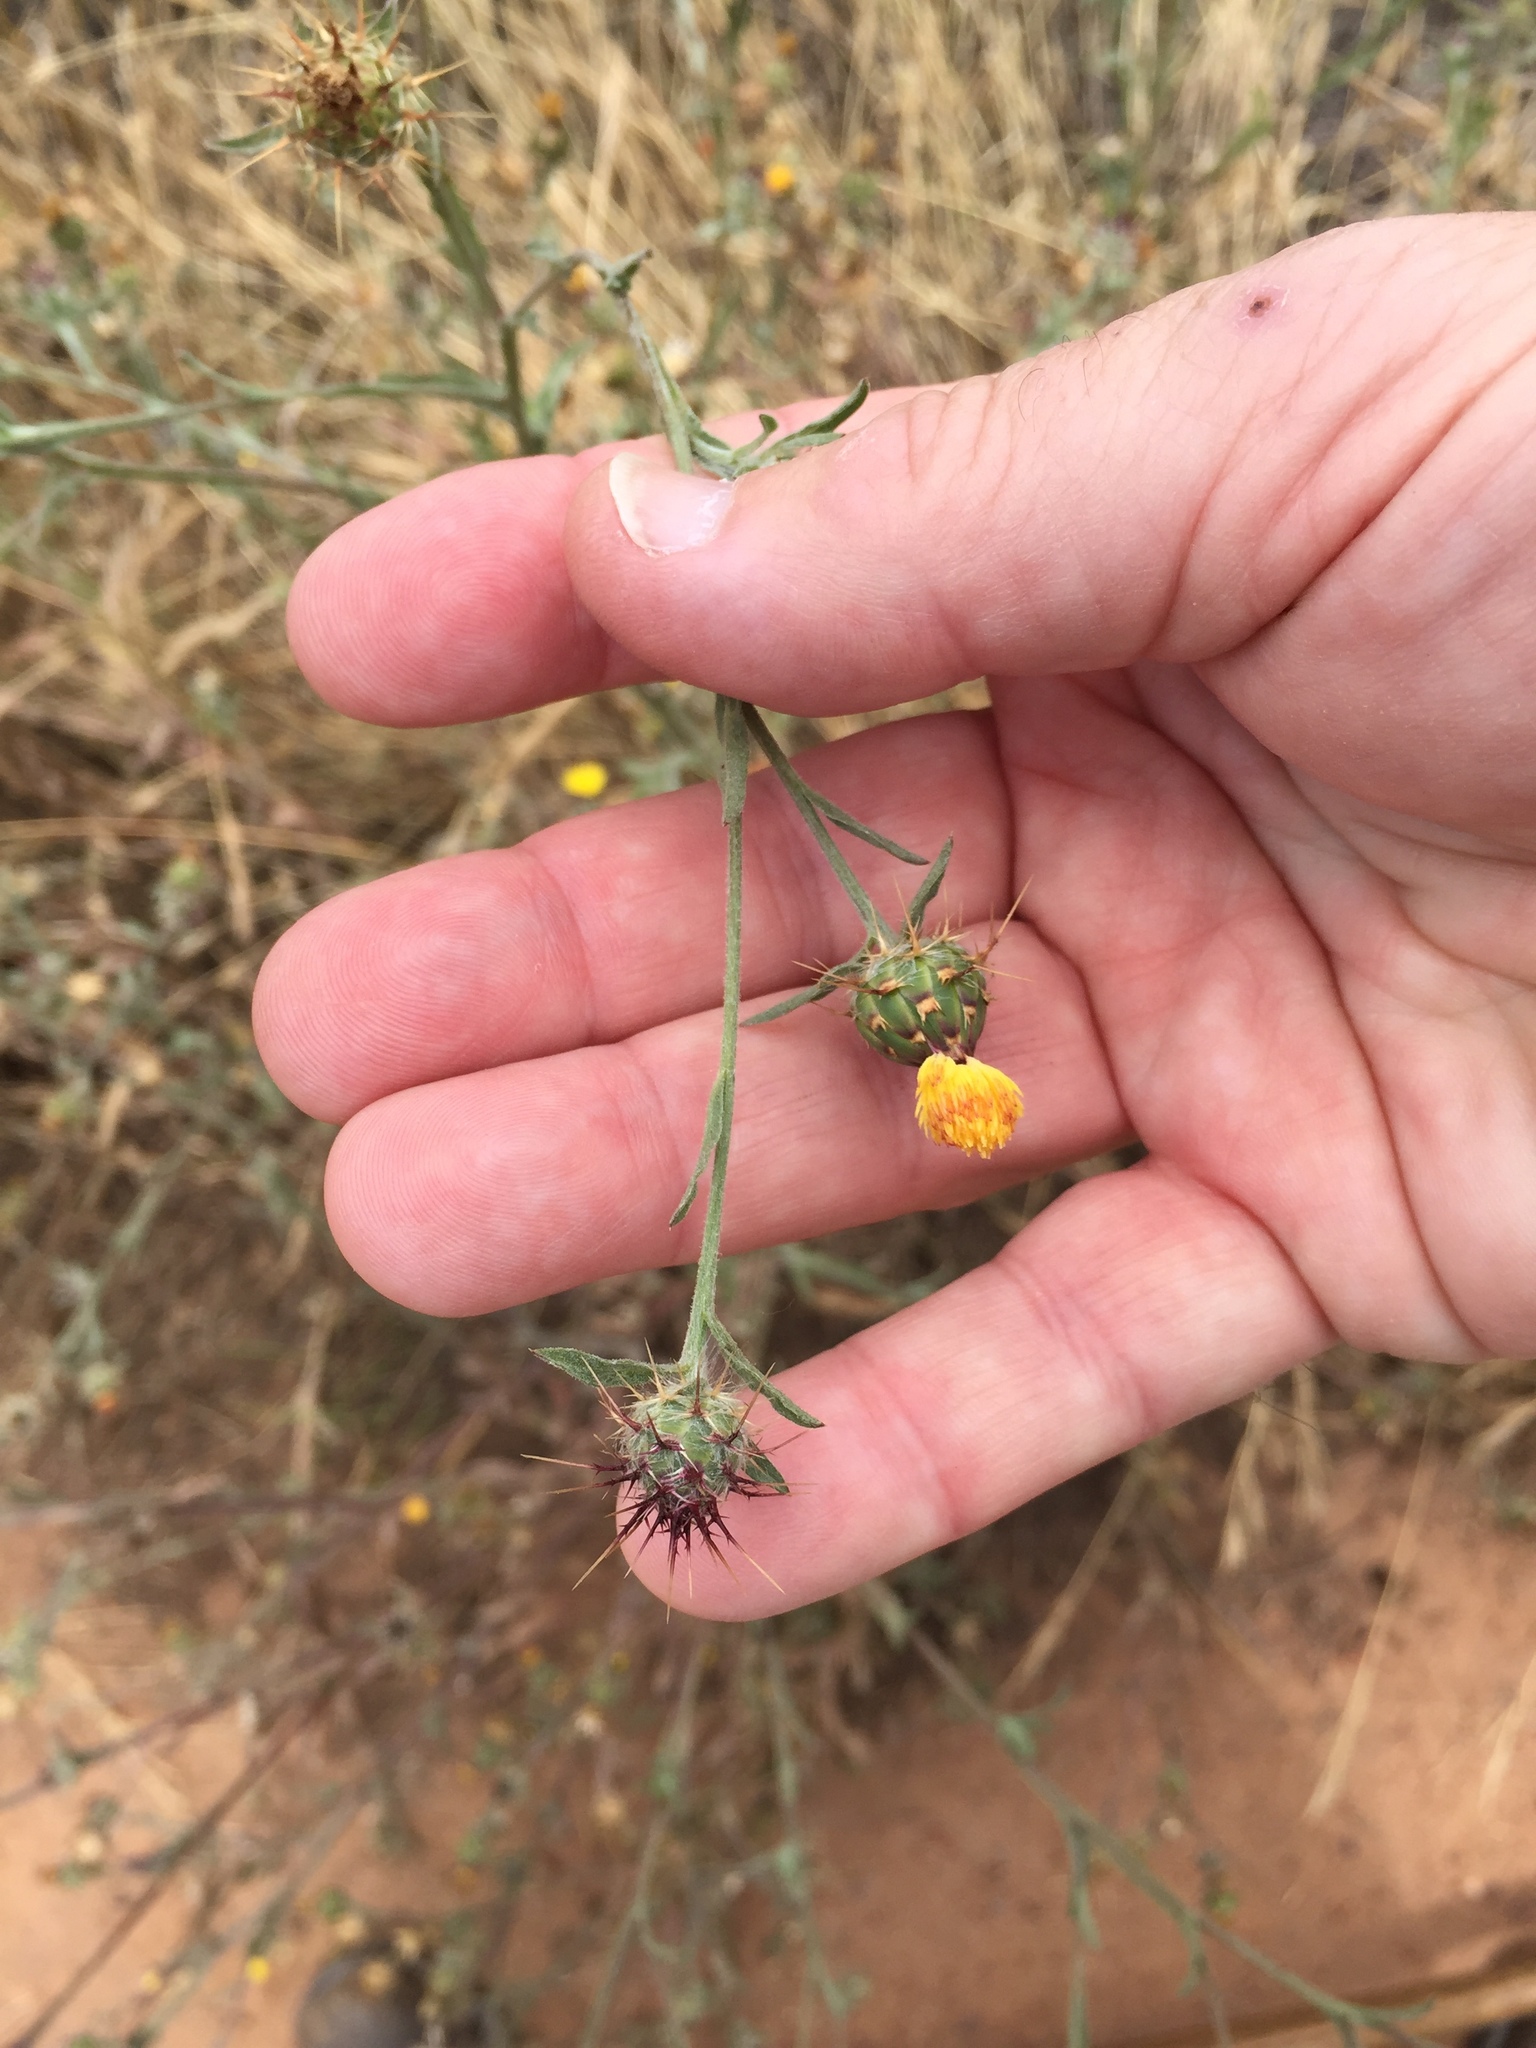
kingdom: Plantae
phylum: Tracheophyta
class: Magnoliopsida
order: Asterales
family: Asteraceae
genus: Centaurea
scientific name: Centaurea melitensis
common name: Maltese star-thistle
